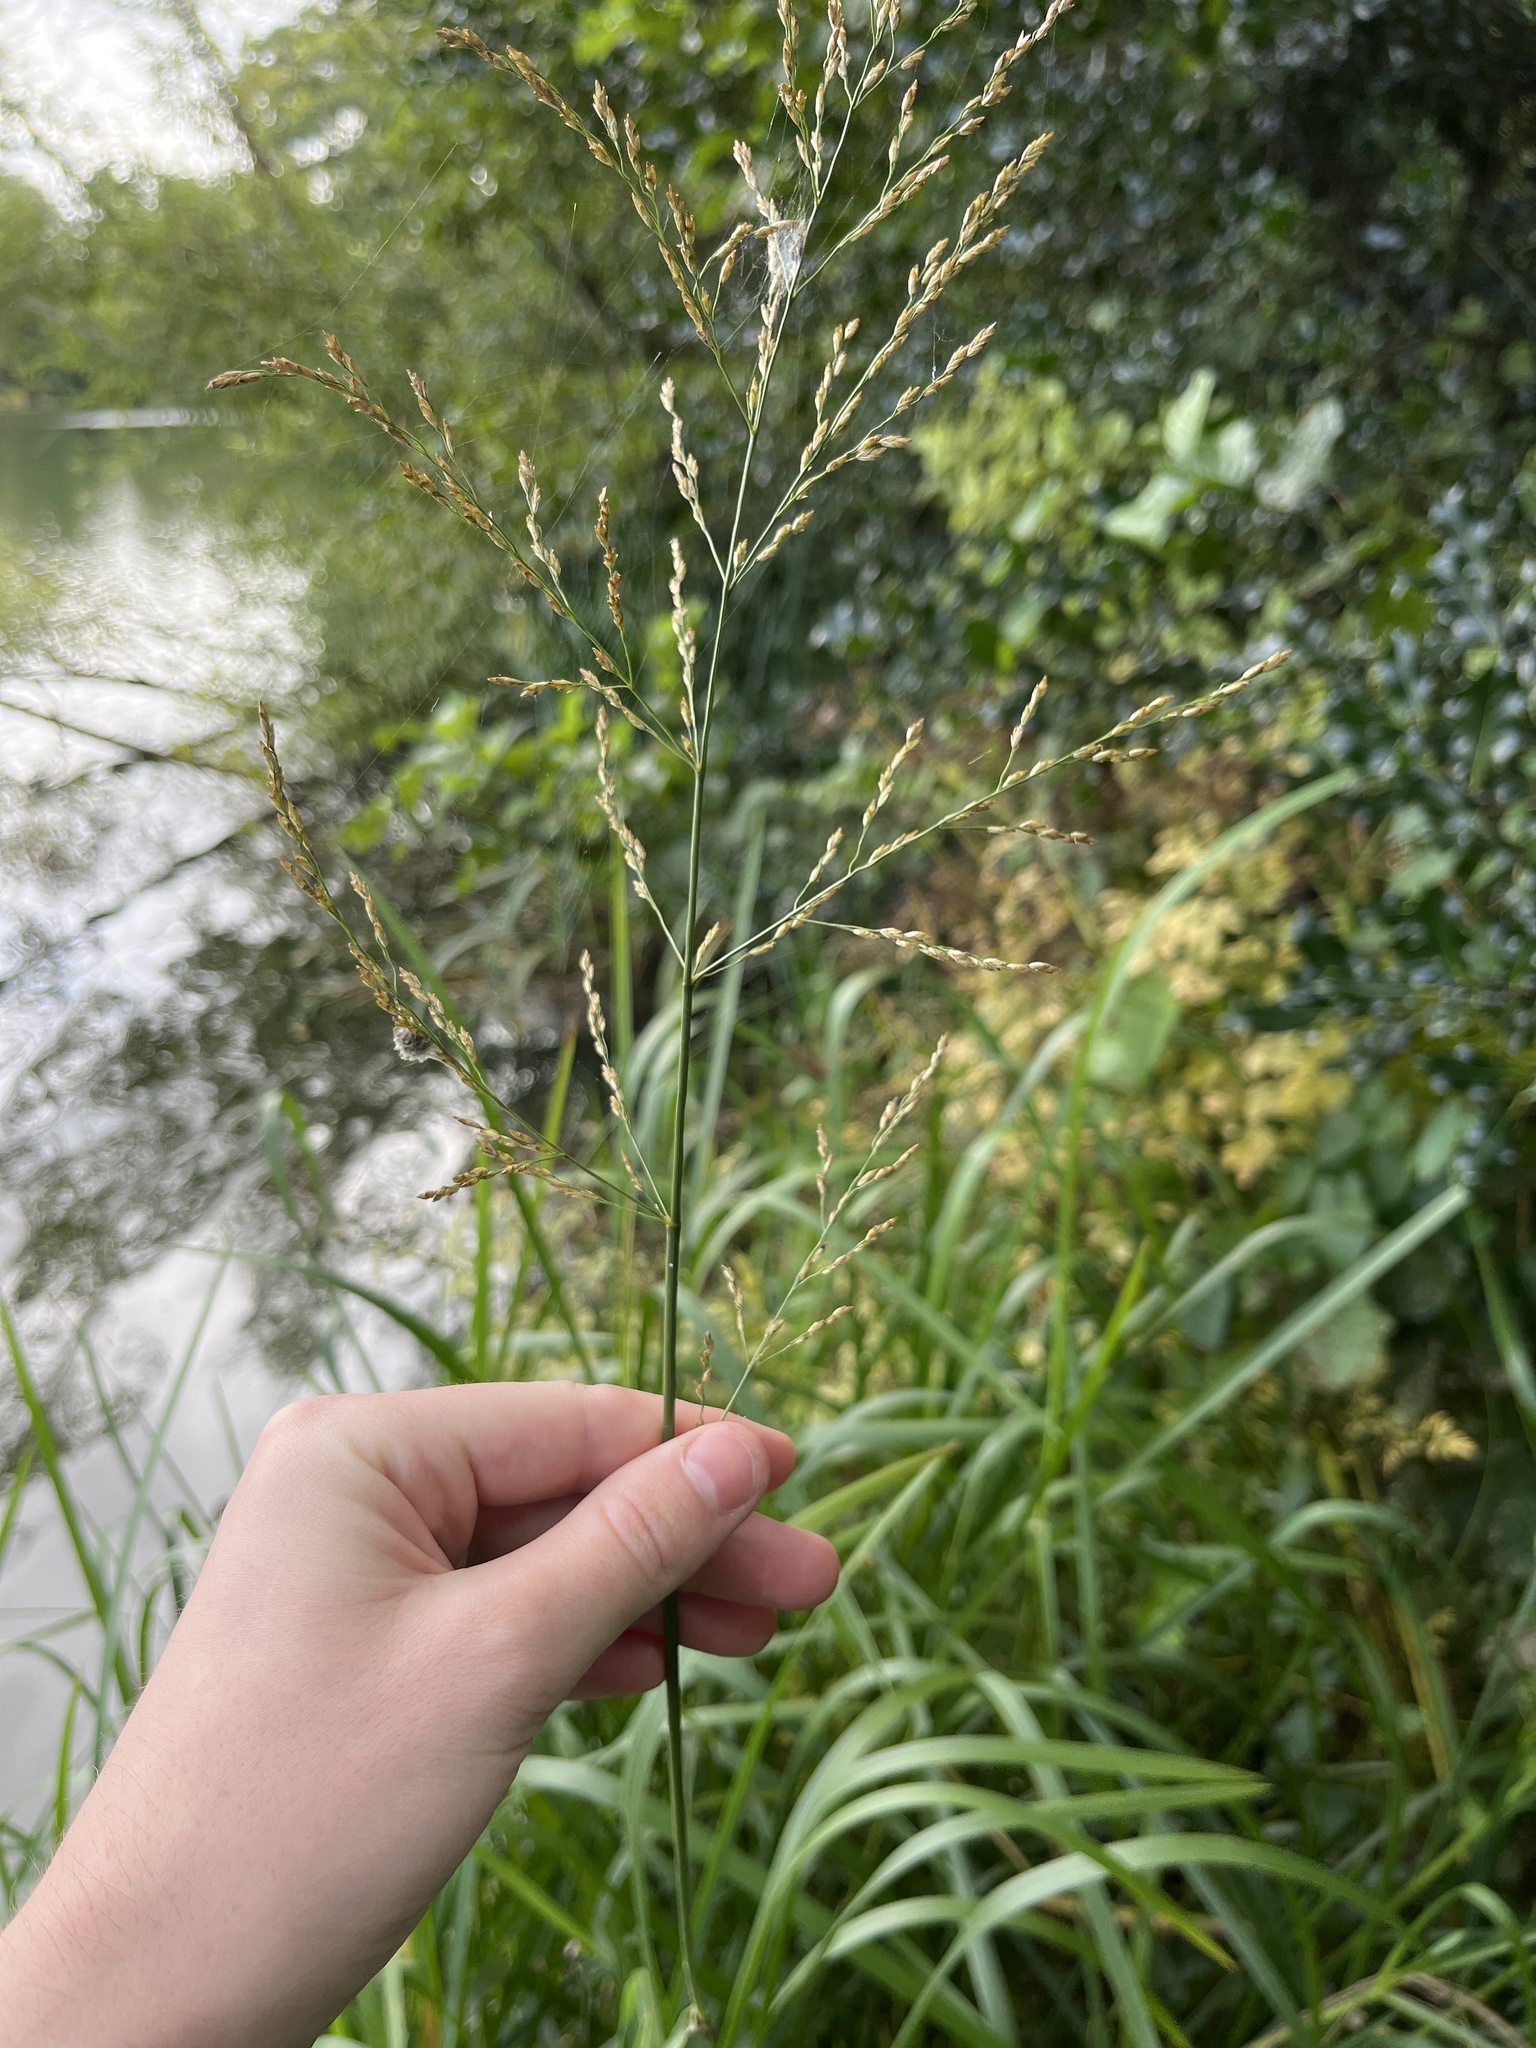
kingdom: Plantae
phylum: Tracheophyta
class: Liliopsida
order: Poales
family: Poaceae
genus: Glyceria
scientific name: Glyceria maxima
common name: Reed mannagrass
